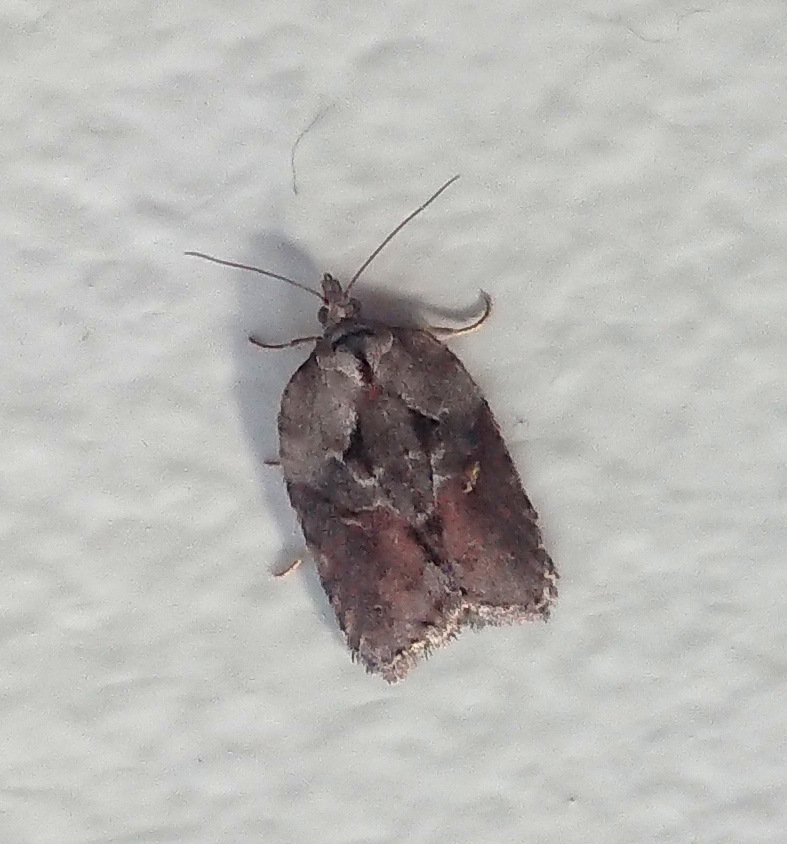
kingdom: Animalia
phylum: Arthropoda
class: Insecta
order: Lepidoptera
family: Tortricidae
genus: Acleris
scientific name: Acleris robinsoniana
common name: Robinson's acleris moth
